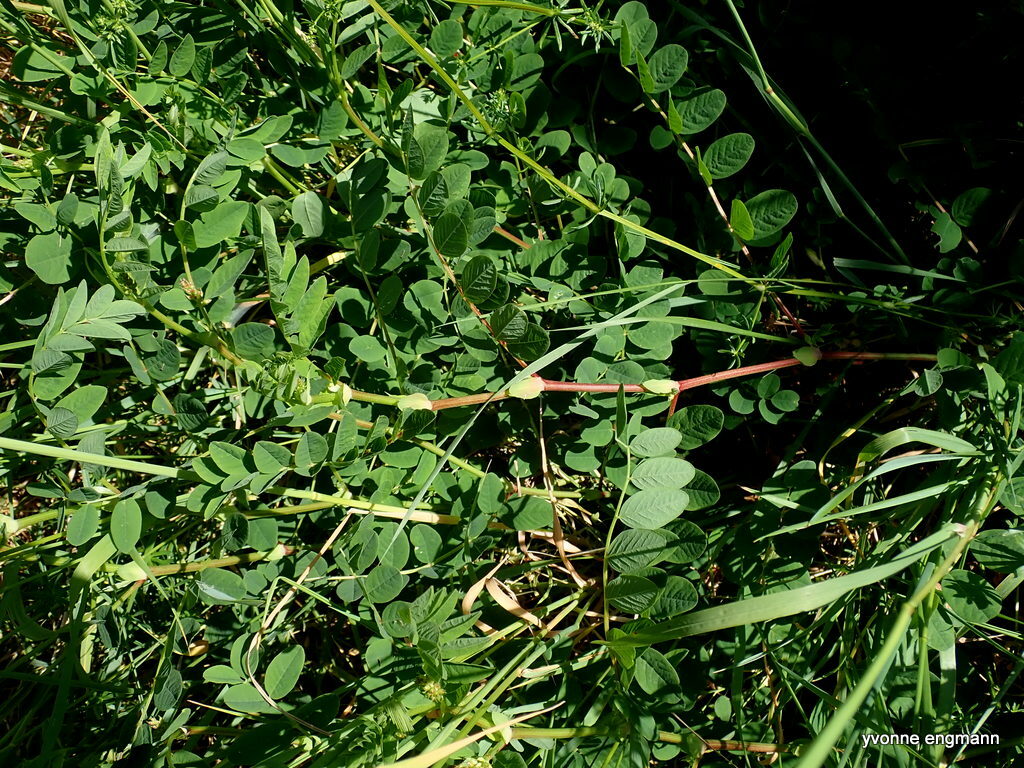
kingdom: Plantae
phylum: Tracheophyta
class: Magnoliopsida
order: Fabales
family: Fabaceae
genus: Astragalus
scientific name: Astragalus glycyphyllos
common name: Wild liquorice
